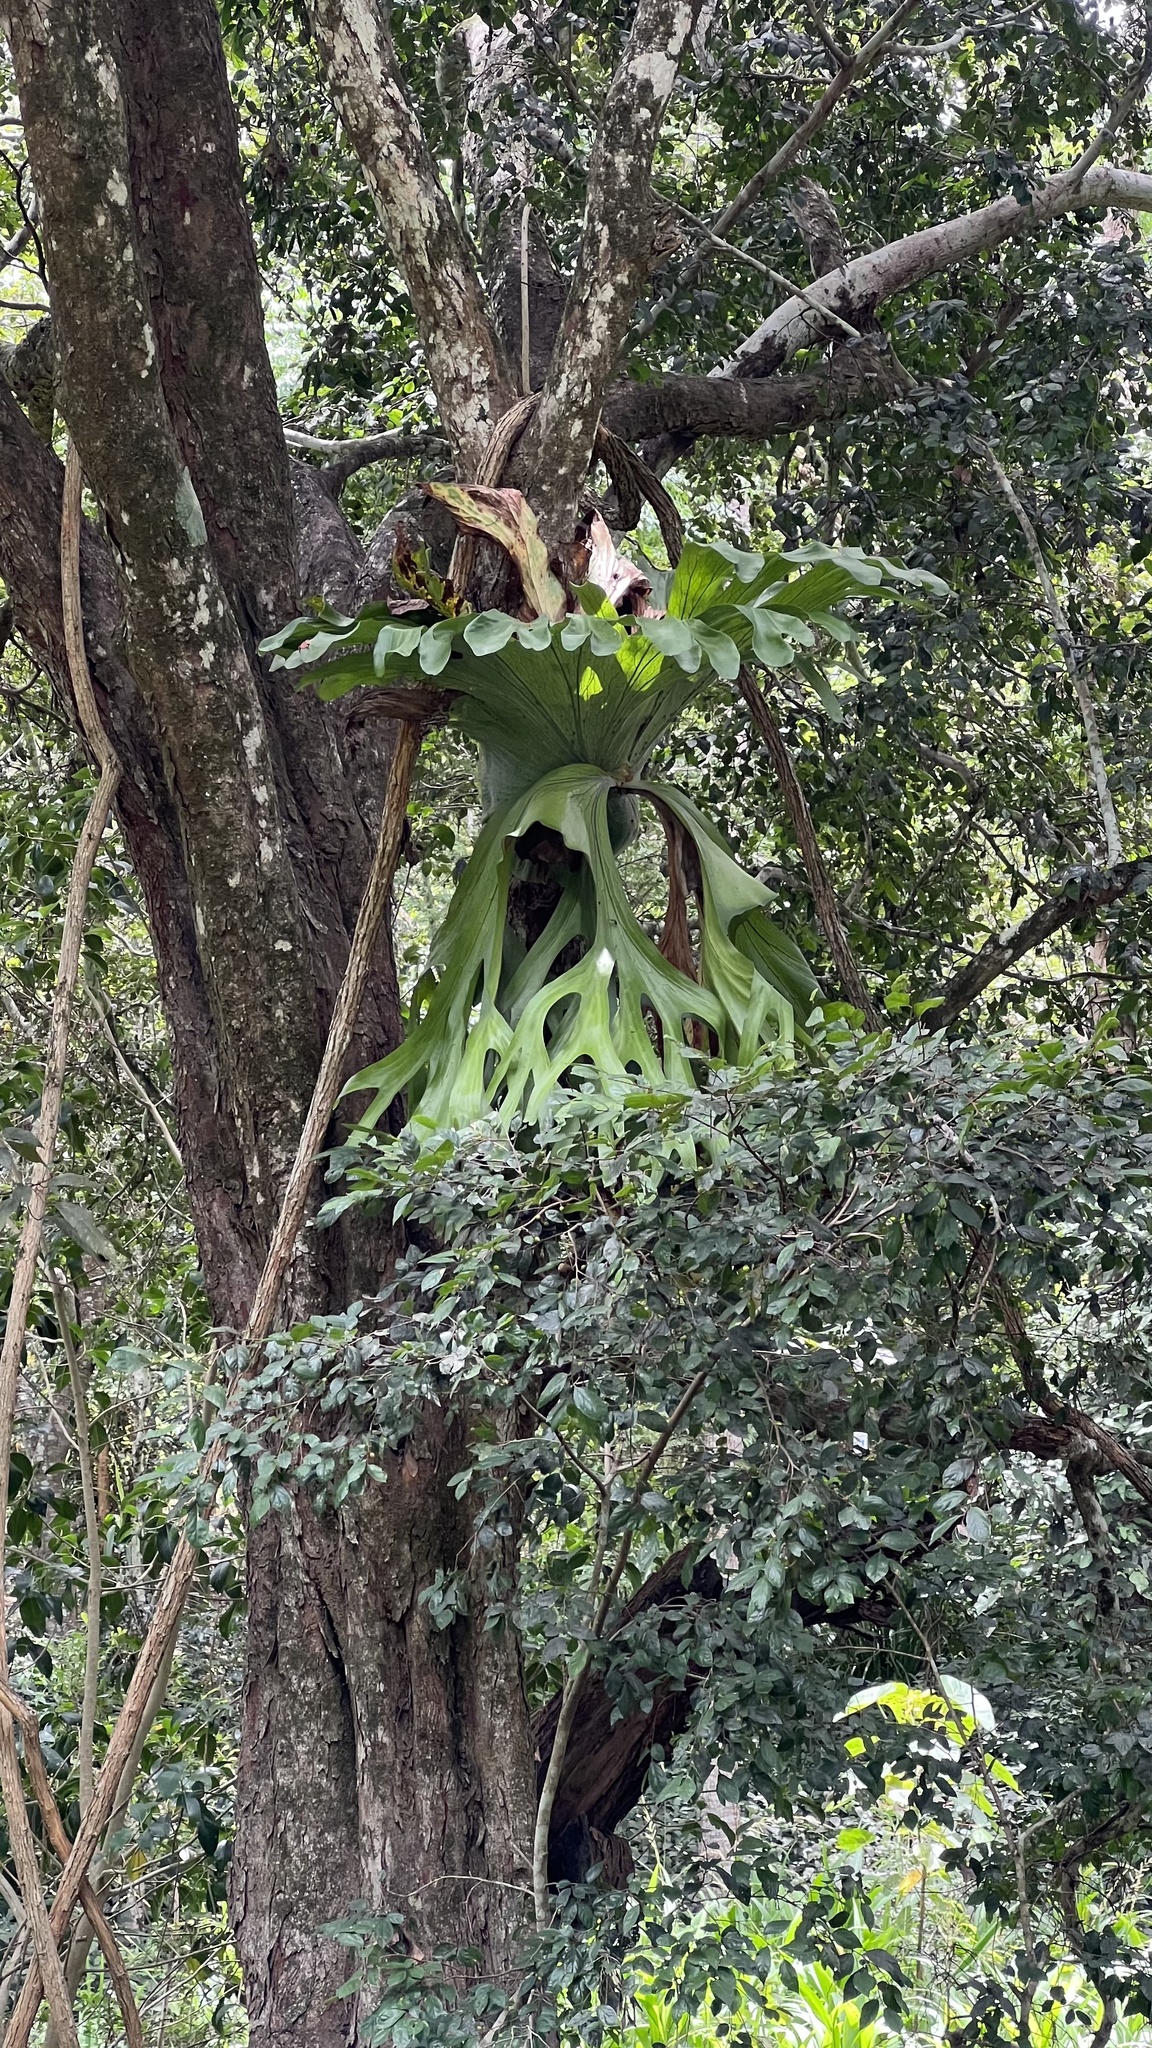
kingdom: Plantae
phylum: Tracheophyta
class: Polypodiopsida
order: Polypodiales
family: Polypodiaceae
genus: Platycerium
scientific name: Platycerium superbum
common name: Staghorn fern
